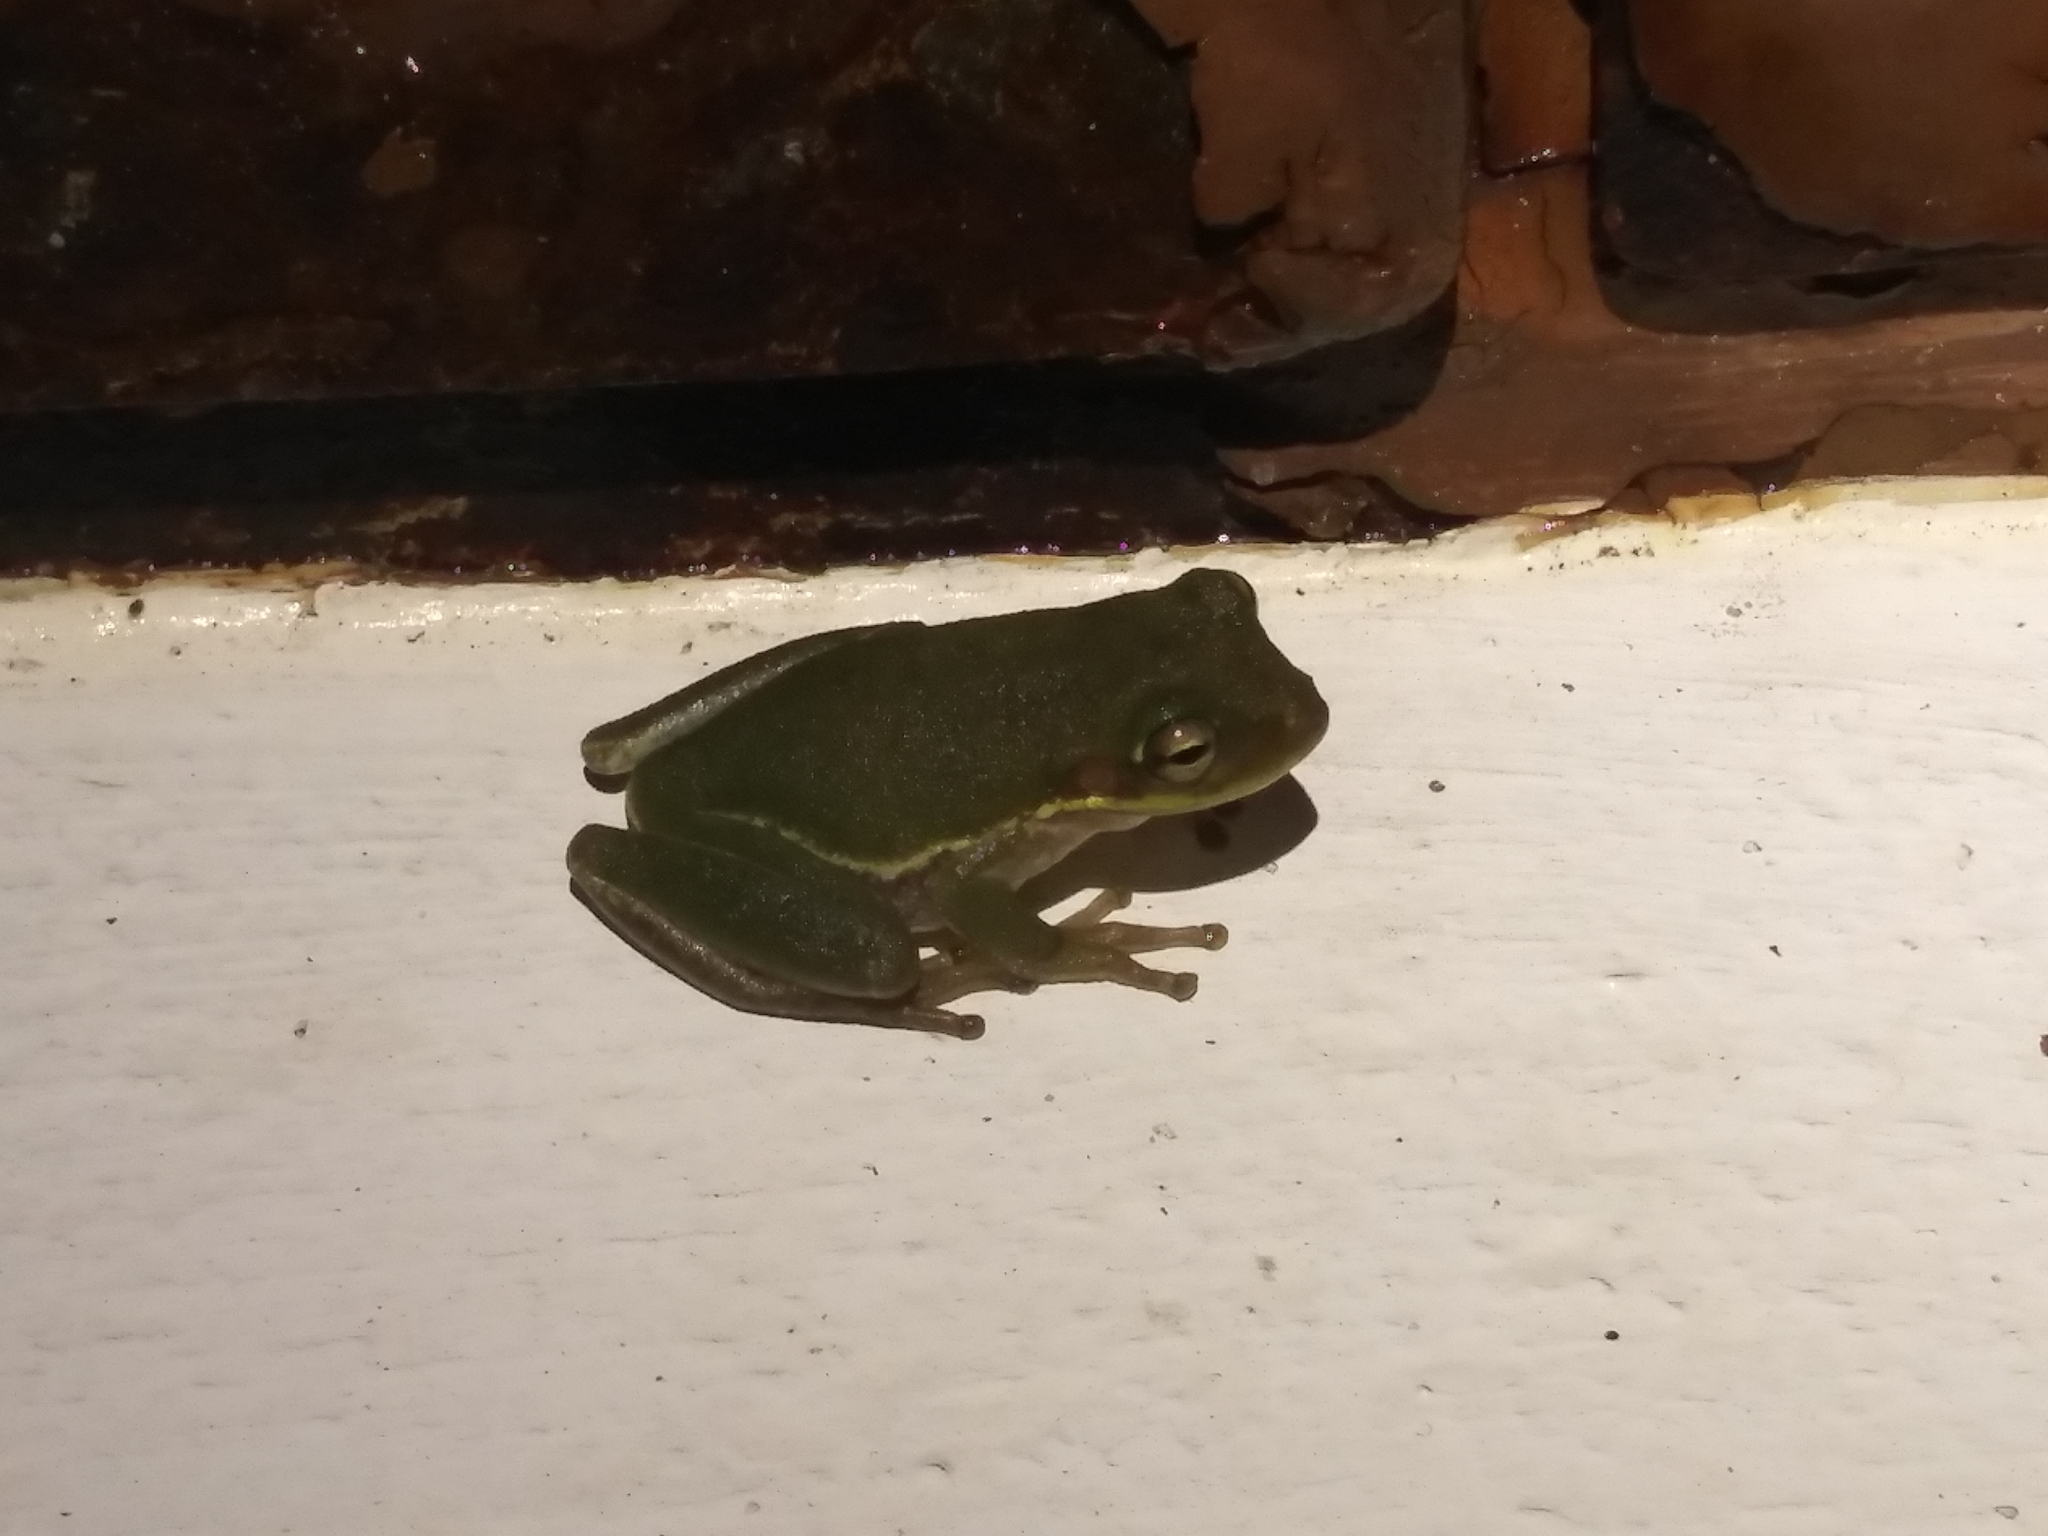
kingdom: Animalia
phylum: Chordata
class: Amphibia
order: Anura
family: Hylidae
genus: Dryophytes
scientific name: Dryophytes squirellus
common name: Squirrel treefrog
